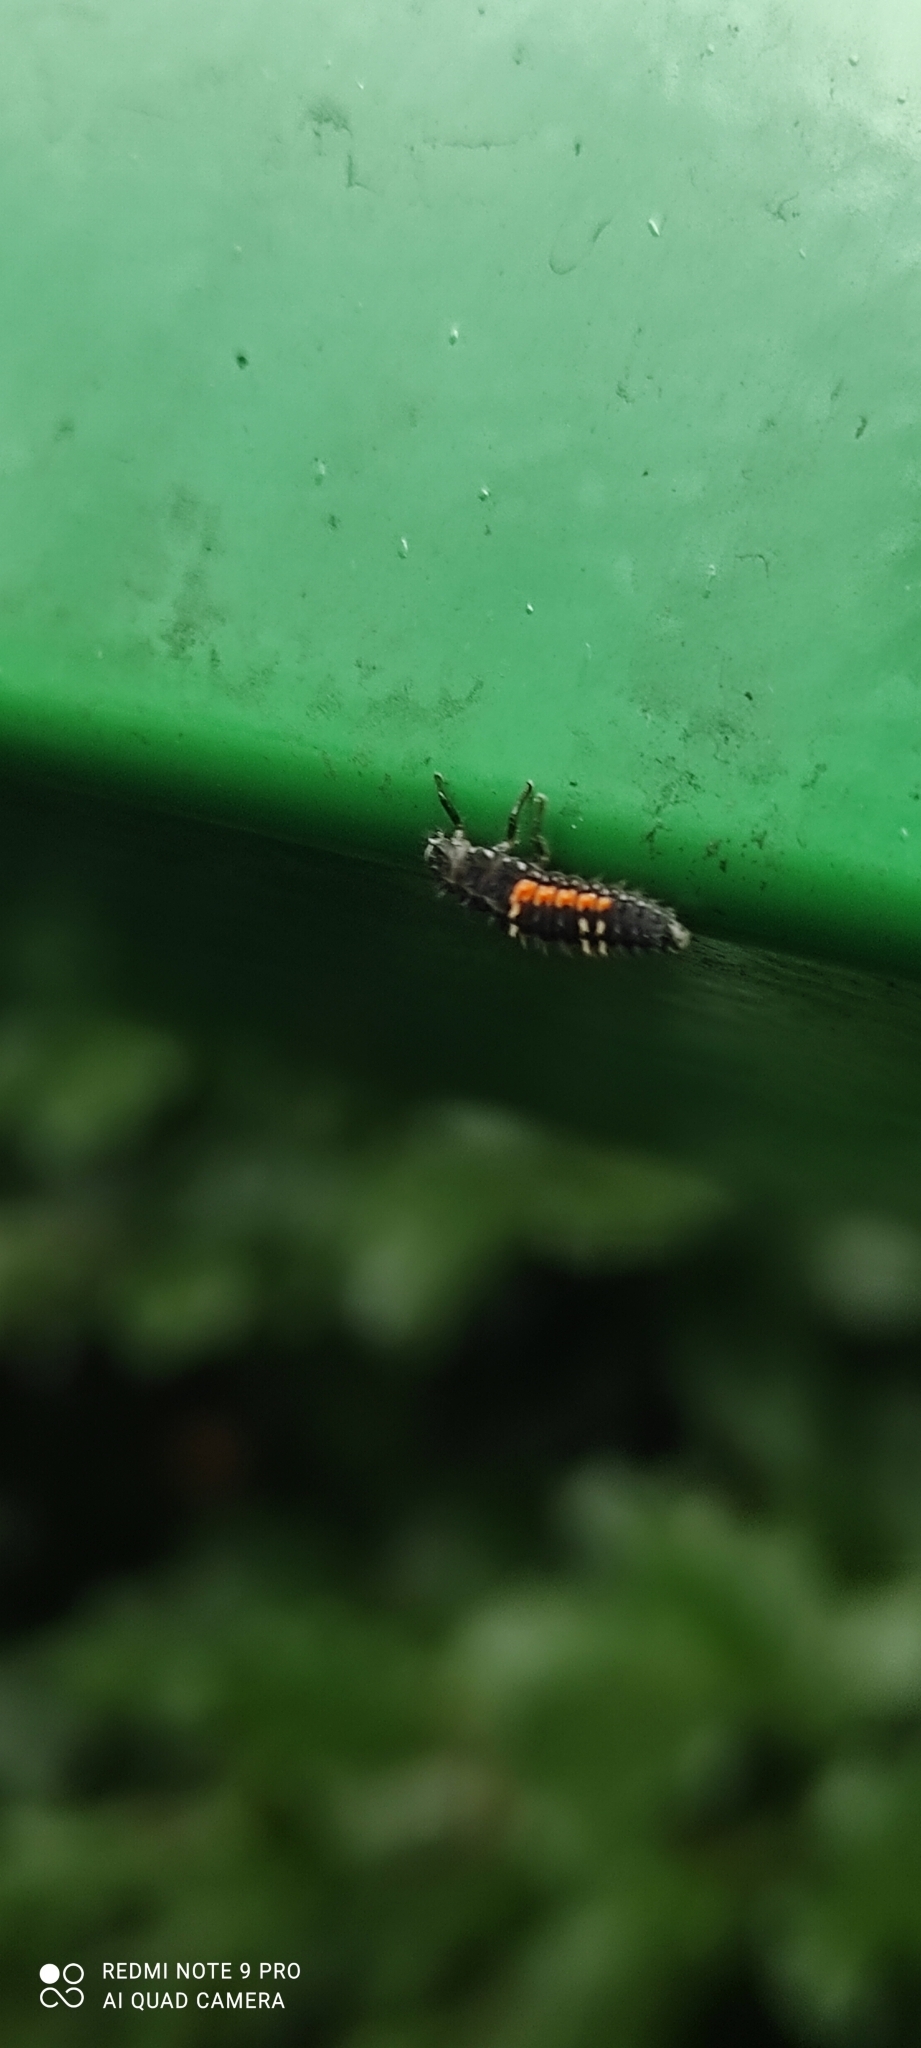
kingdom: Animalia
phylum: Arthropoda
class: Insecta
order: Coleoptera
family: Coccinellidae
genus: Harmonia
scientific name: Harmonia axyridis
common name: Harlequin ladybird
